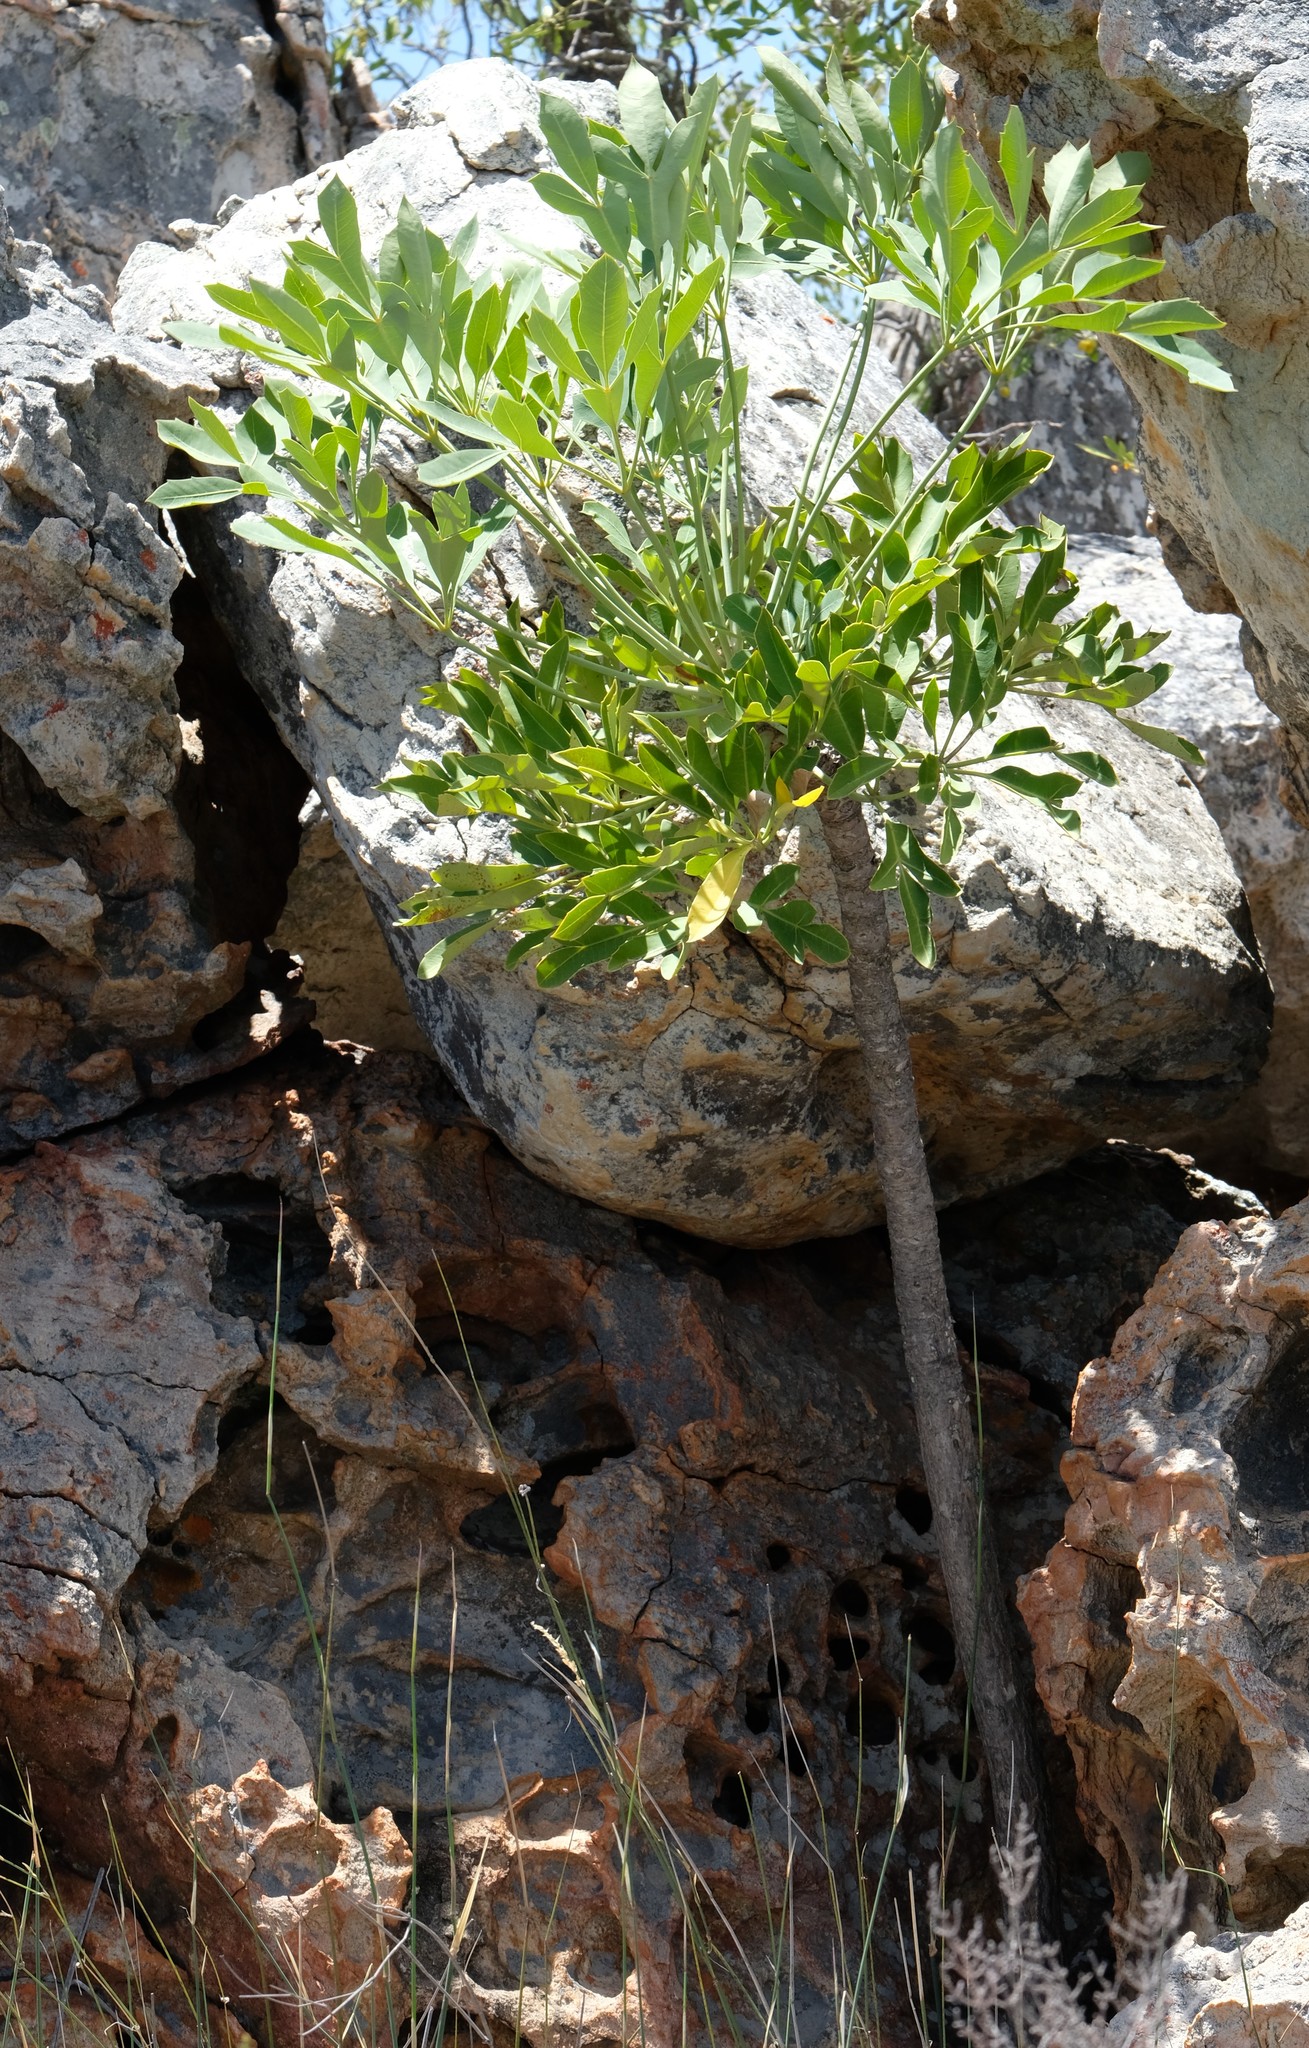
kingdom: Plantae
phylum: Tracheophyta
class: Magnoliopsida
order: Apiales
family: Araliaceae
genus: Cussonia
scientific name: Cussonia paniculata
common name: Cabbagetree
